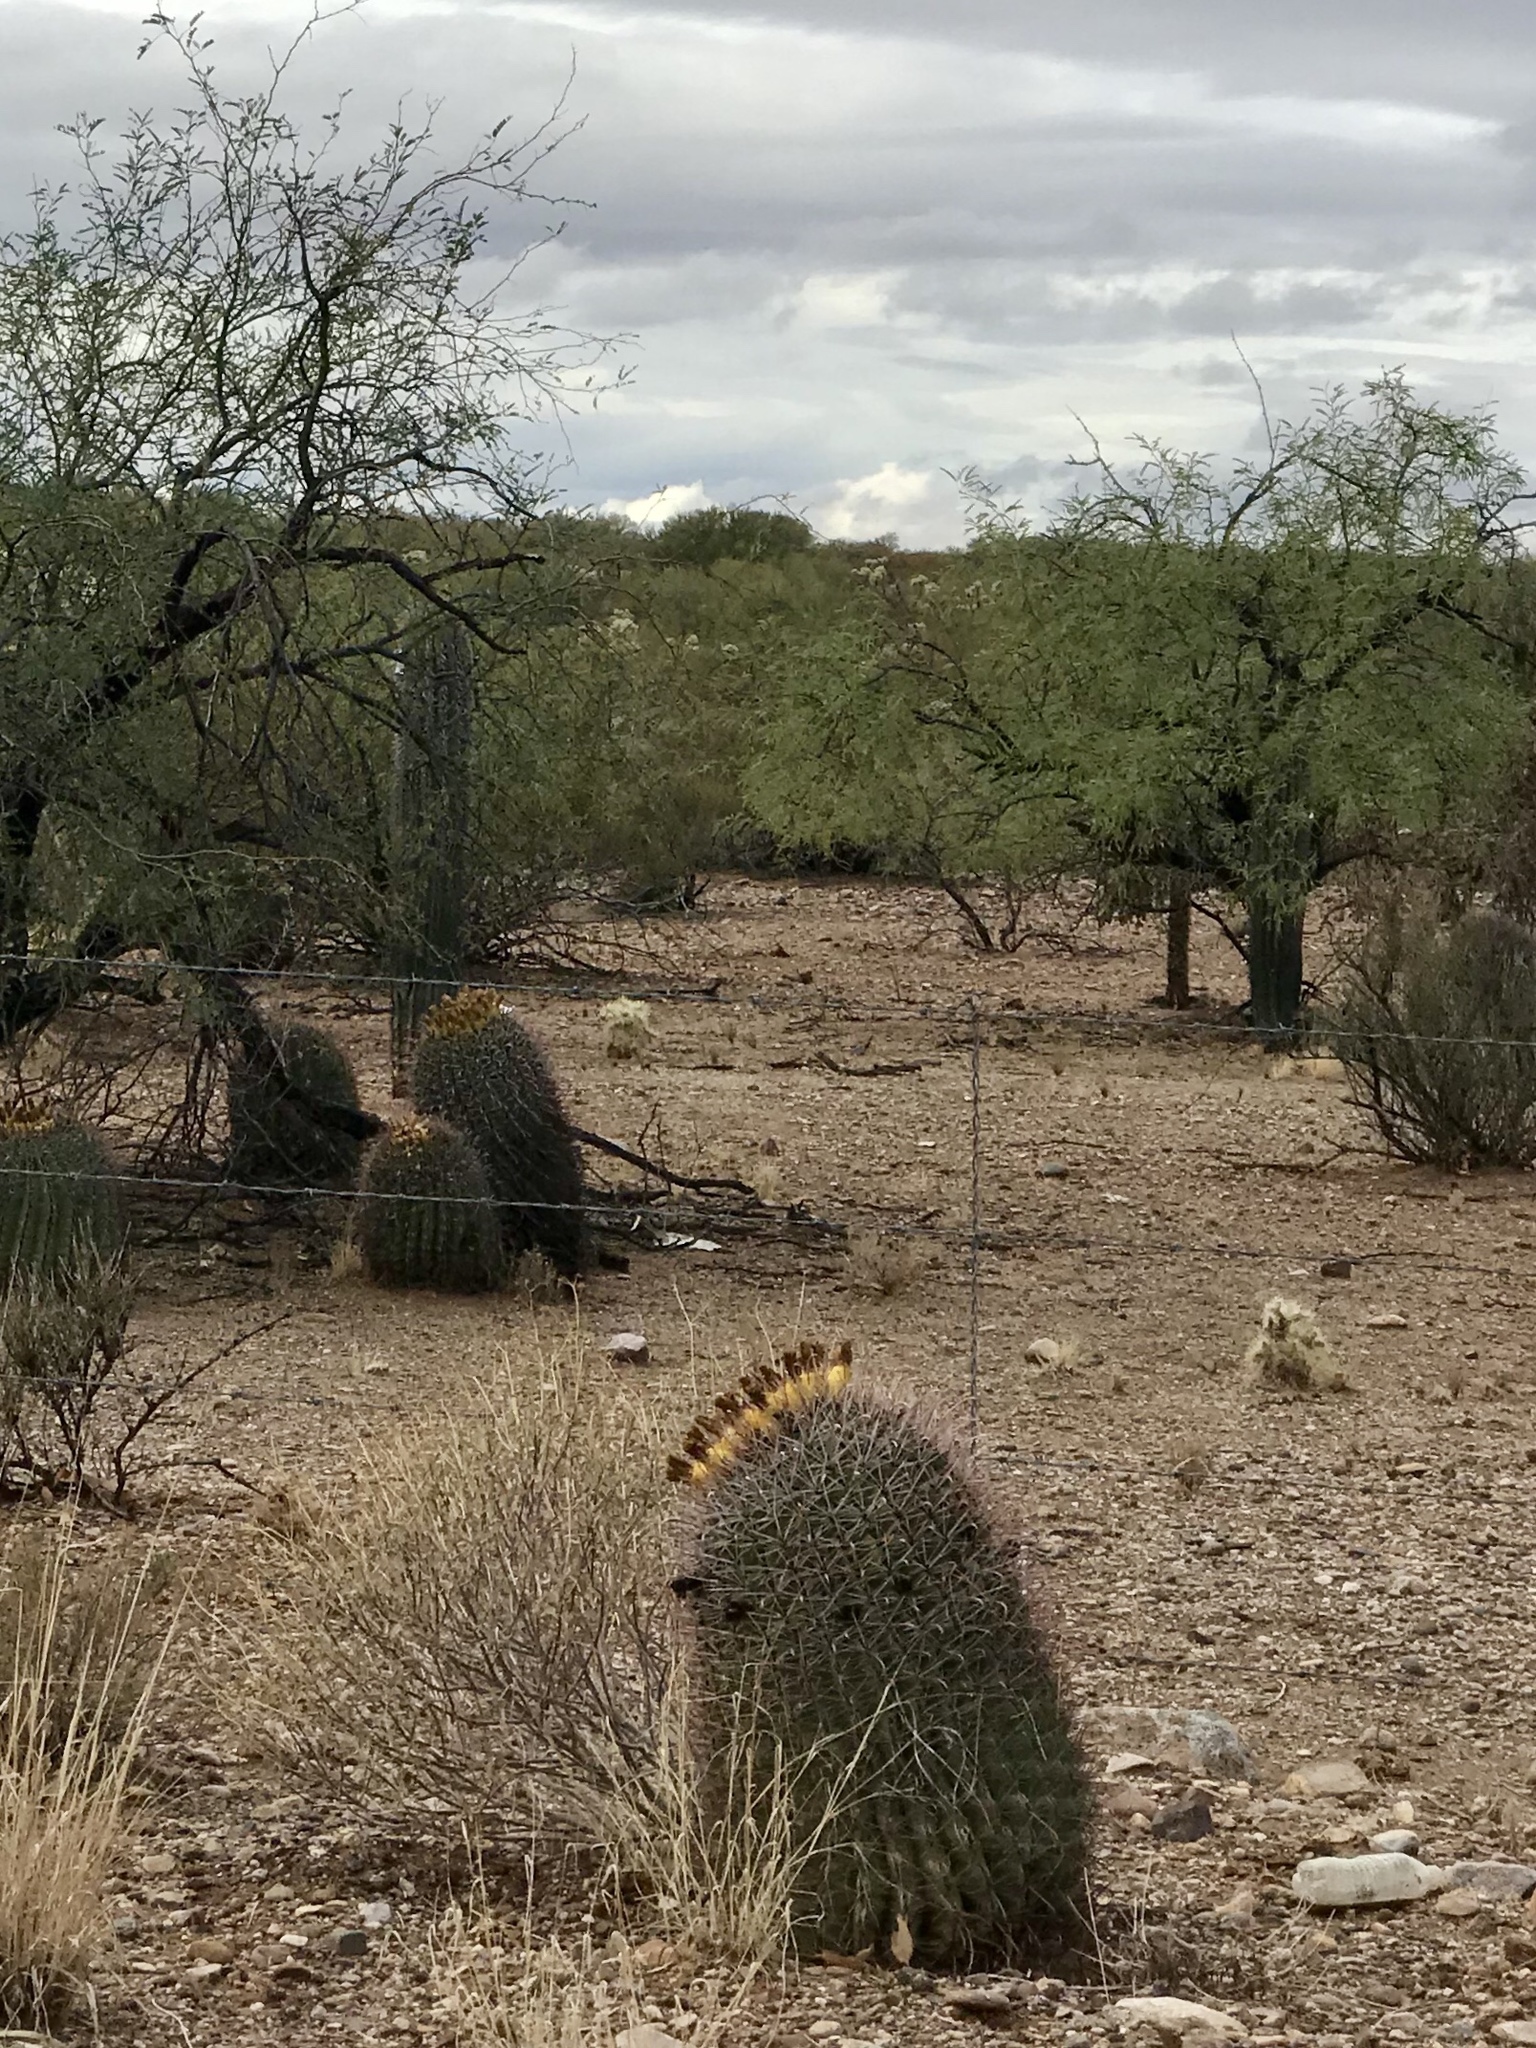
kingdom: Plantae
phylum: Tracheophyta
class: Magnoliopsida
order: Caryophyllales
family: Cactaceae
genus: Ferocactus
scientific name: Ferocactus wislizeni
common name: Candy barrel cactus
